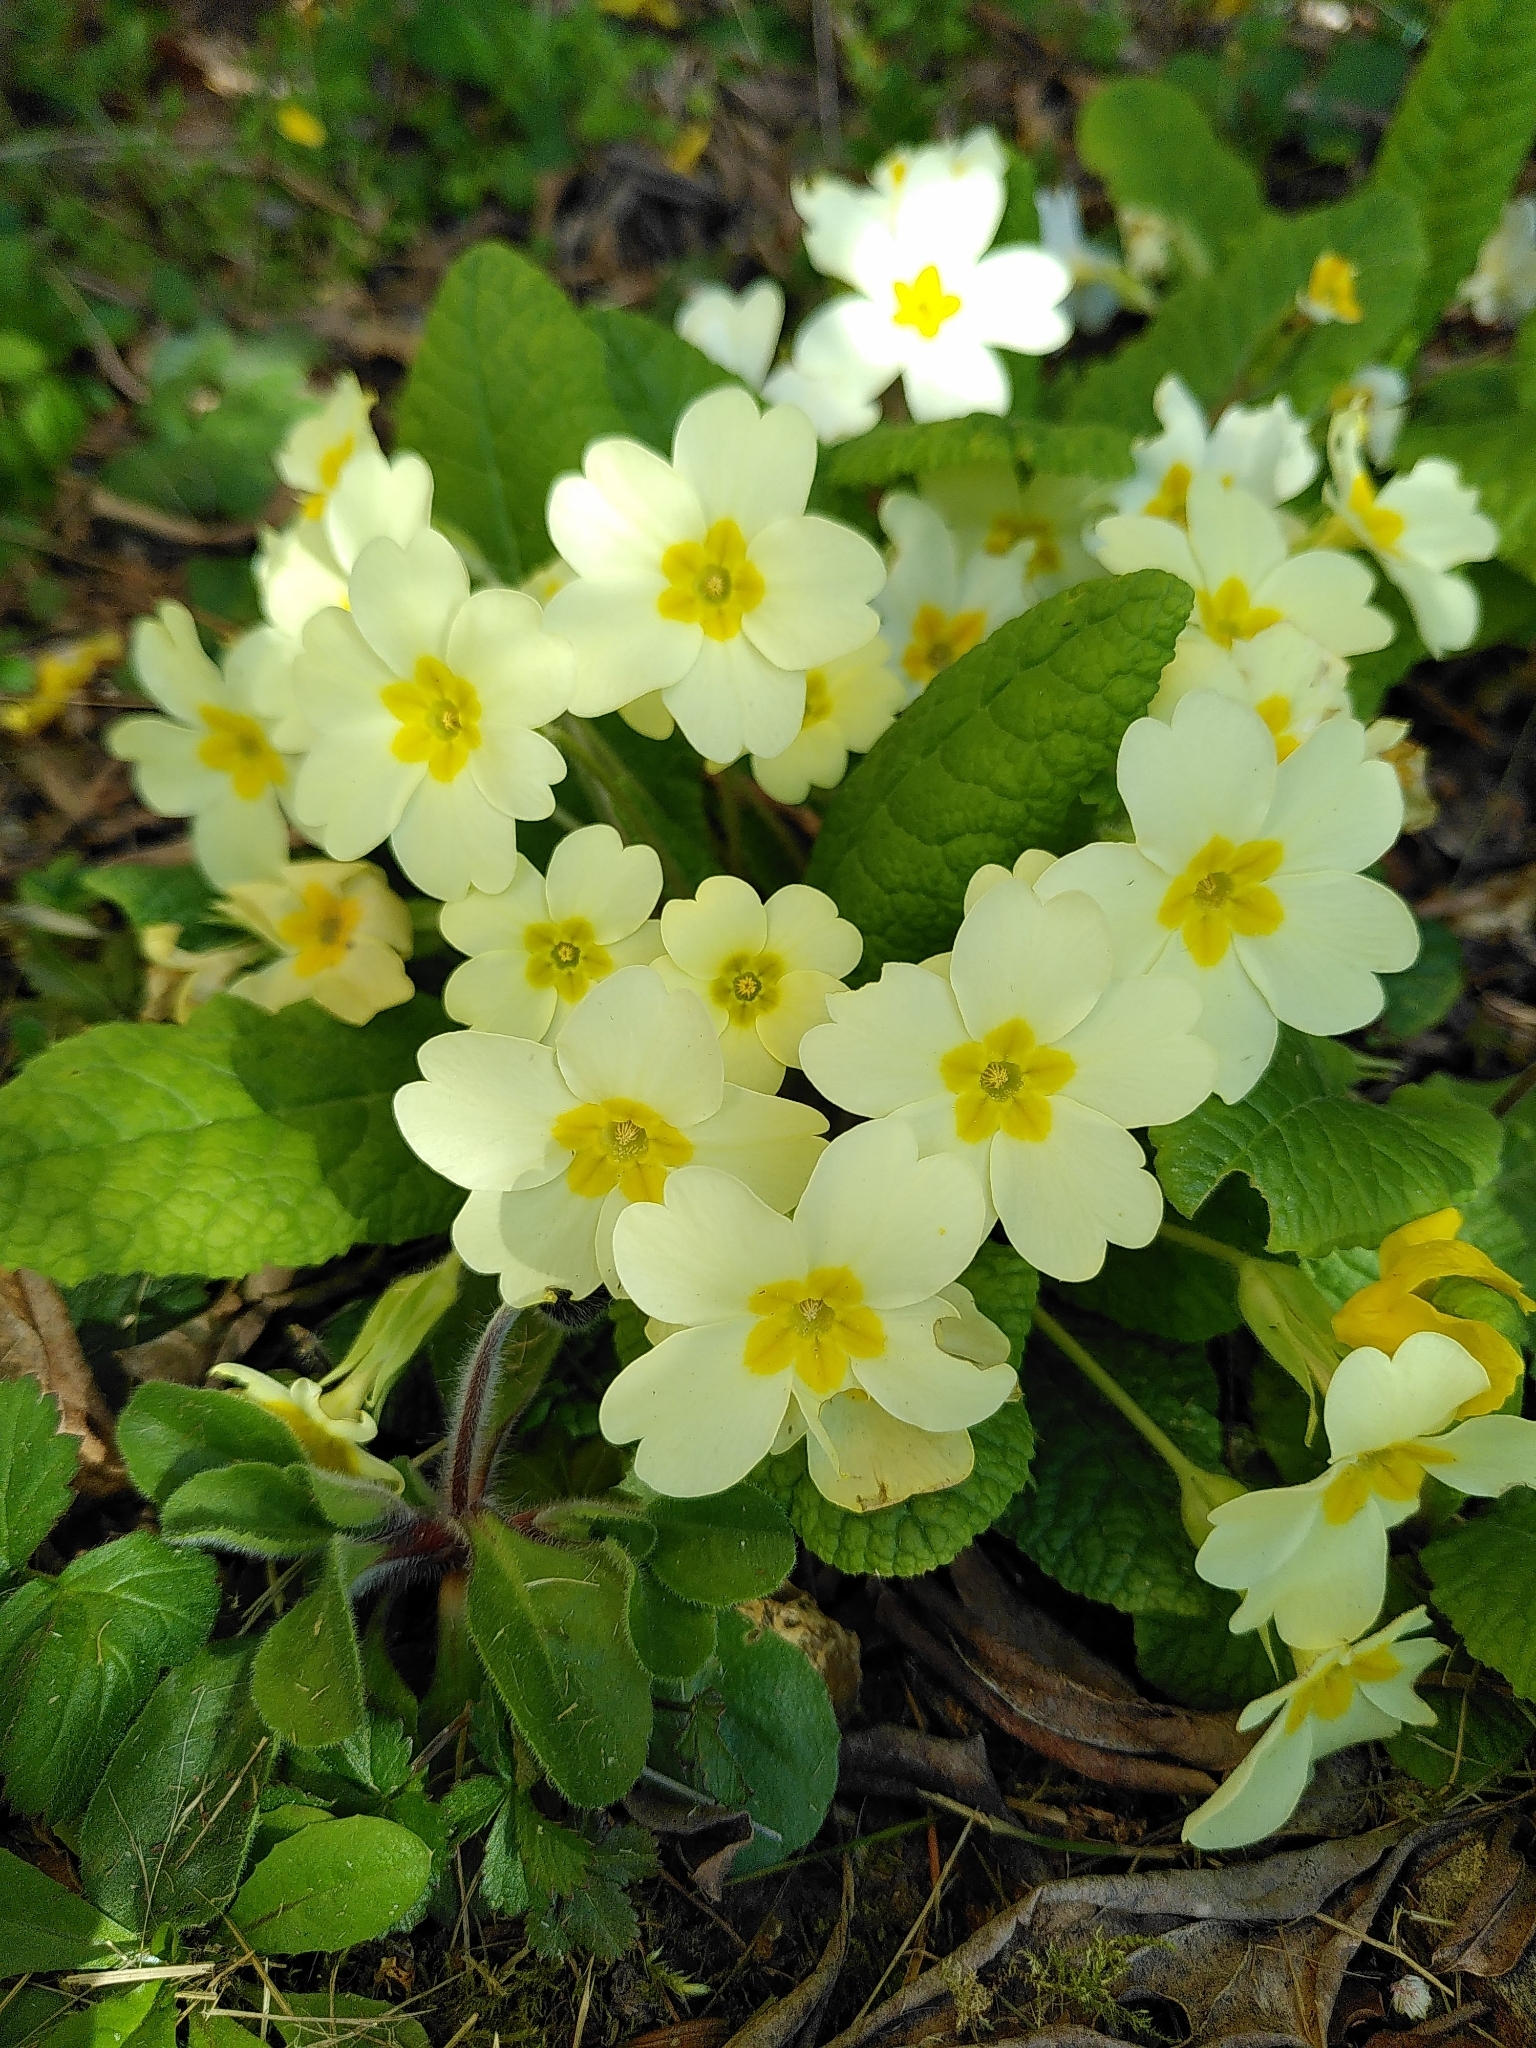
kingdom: Plantae
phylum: Tracheophyta
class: Magnoliopsida
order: Ericales
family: Primulaceae
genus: Primula
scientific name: Primula vulgaris
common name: Primrose
